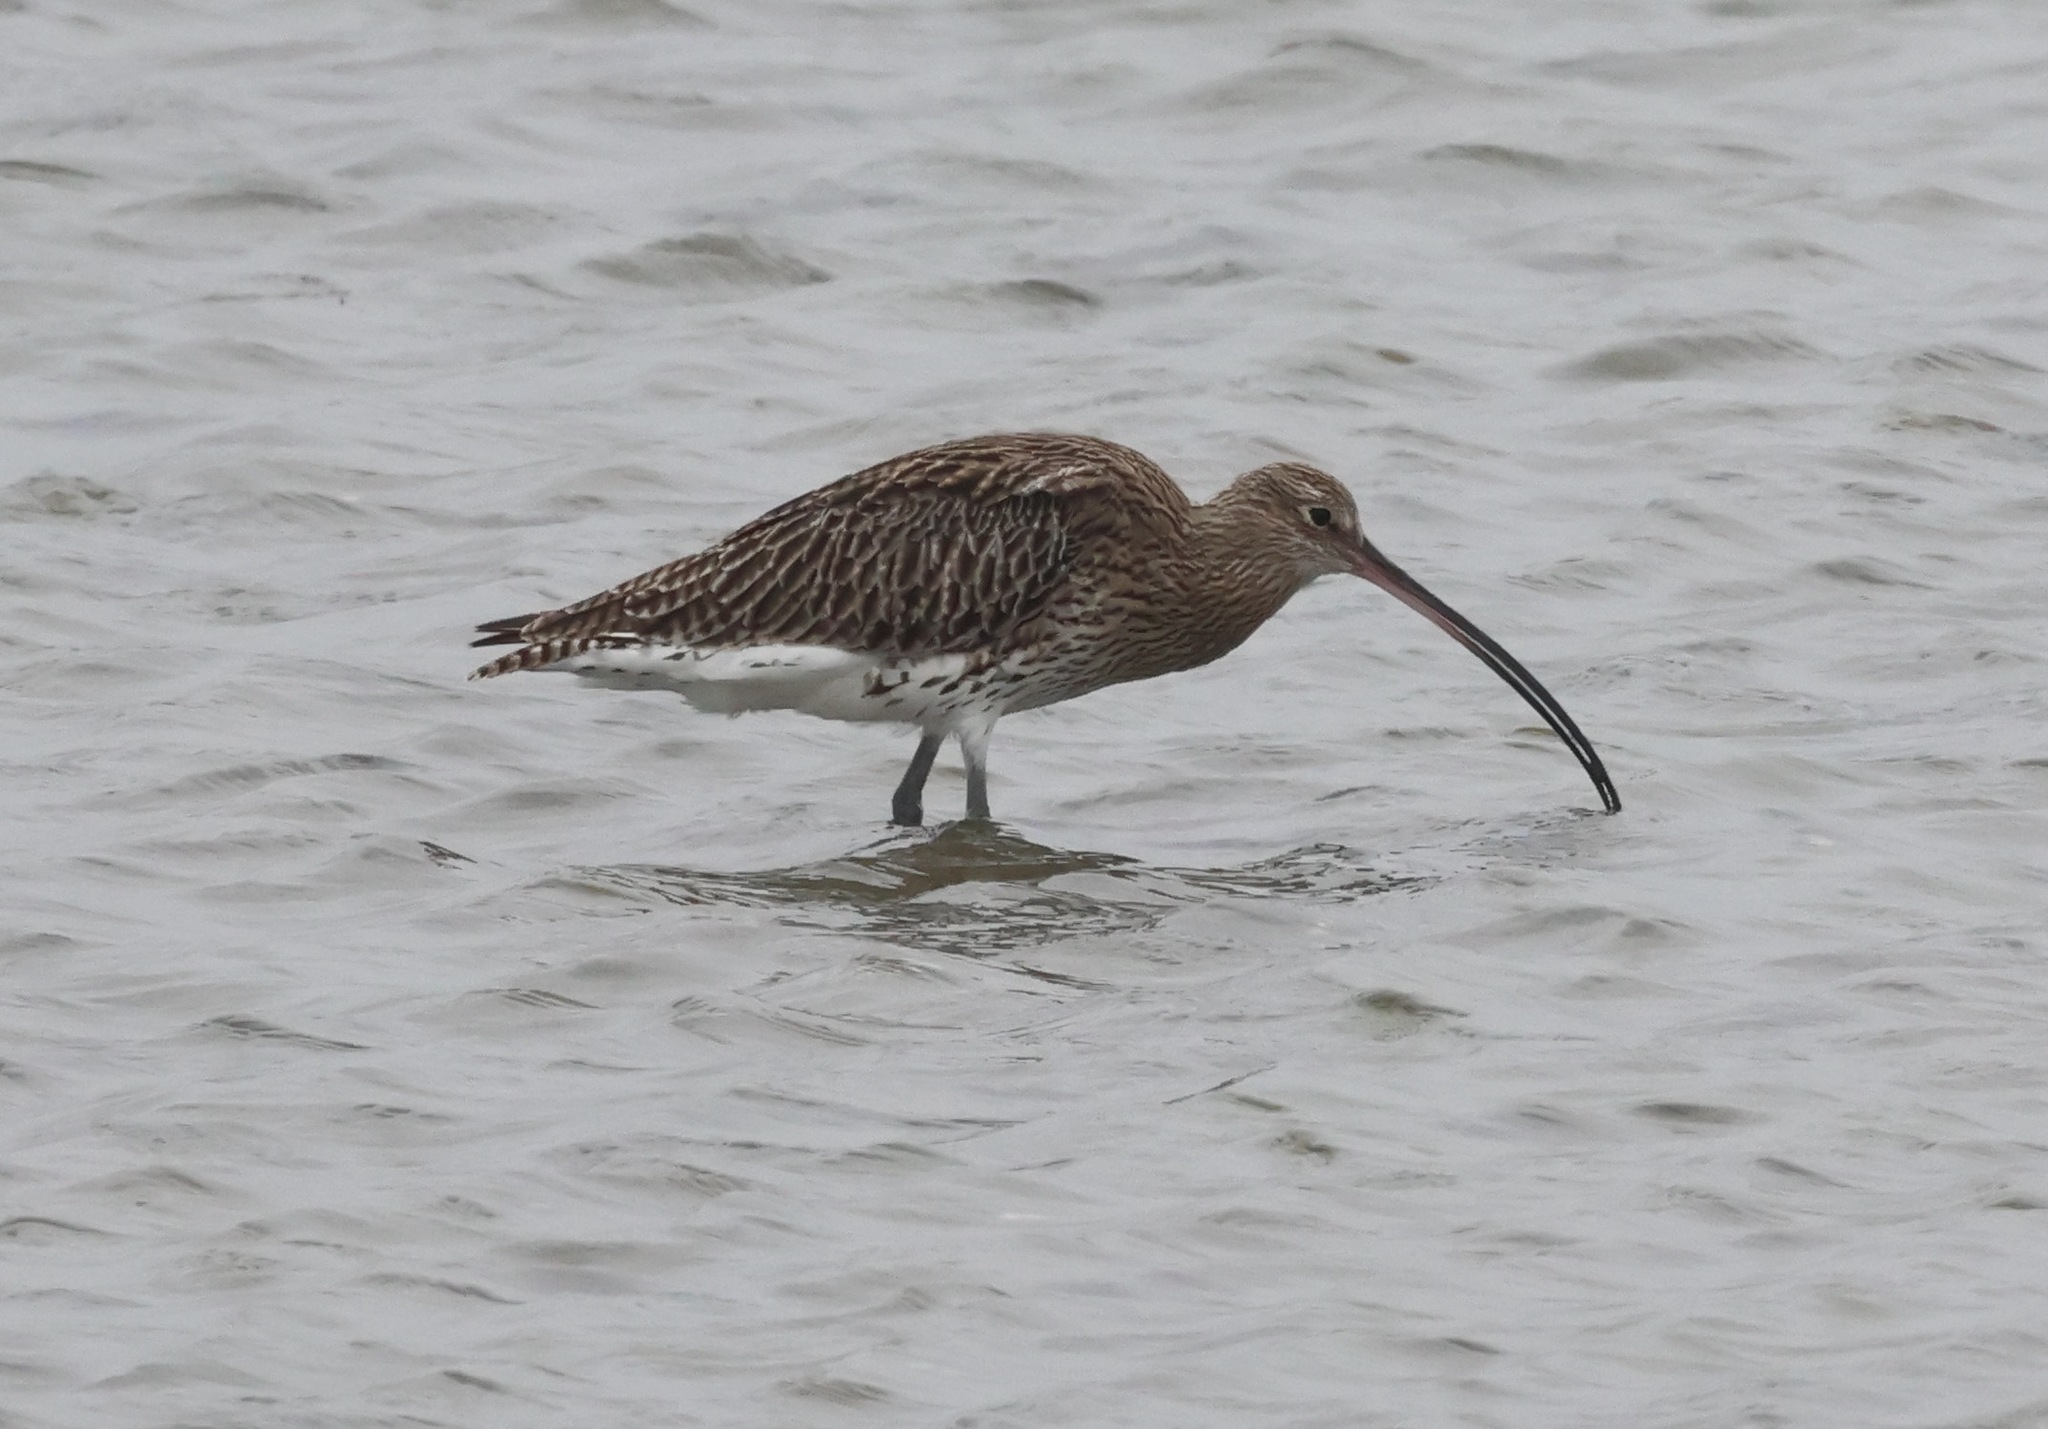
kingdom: Animalia
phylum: Chordata
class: Aves
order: Charadriiformes
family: Scolopacidae
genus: Numenius
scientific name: Numenius arquata
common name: Eurasian curlew
